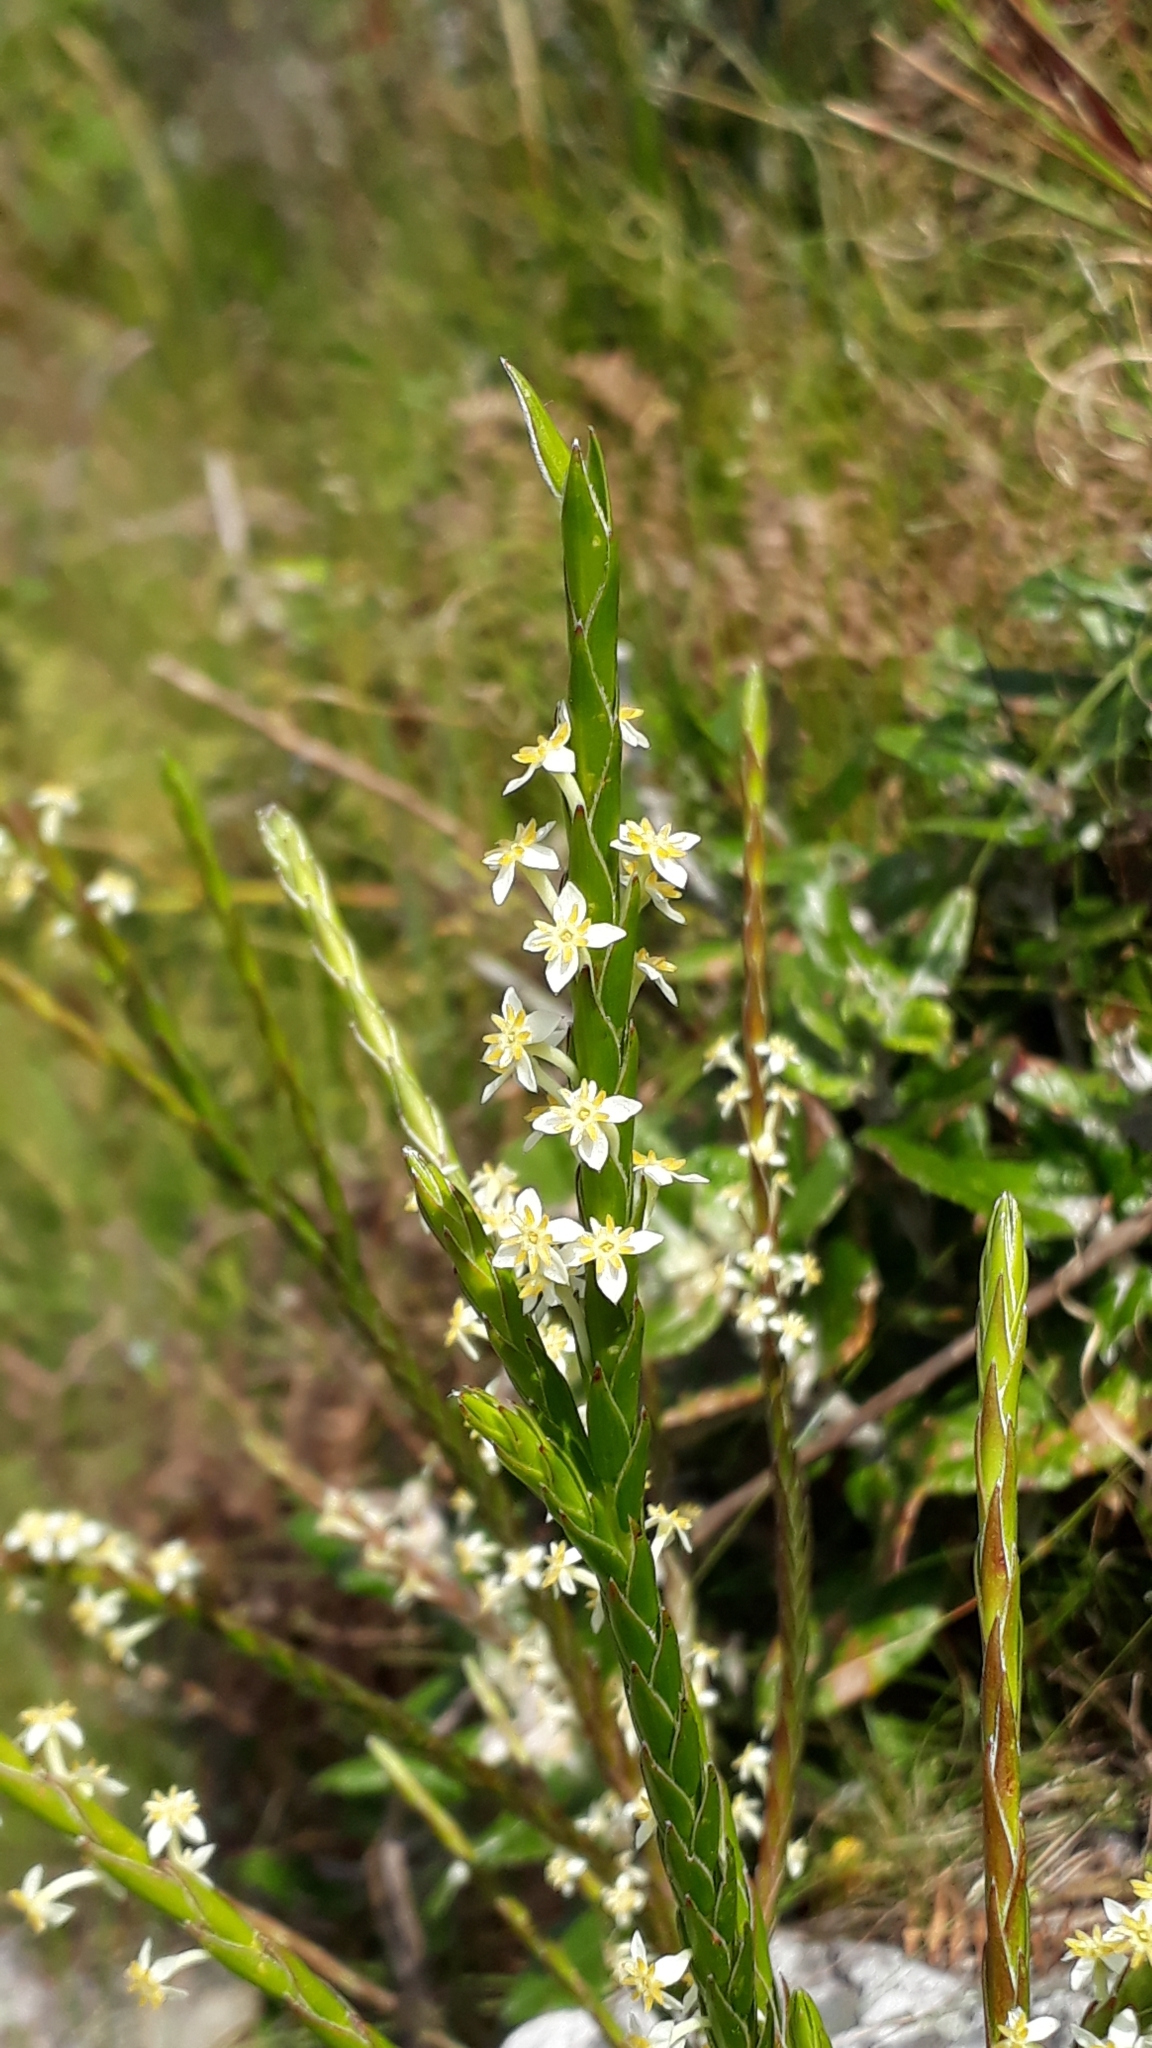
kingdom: Plantae
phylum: Tracheophyta
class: Magnoliopsida
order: Malvales
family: Thymelaeaceae
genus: Struthiola
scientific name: Struthiola ciliata
